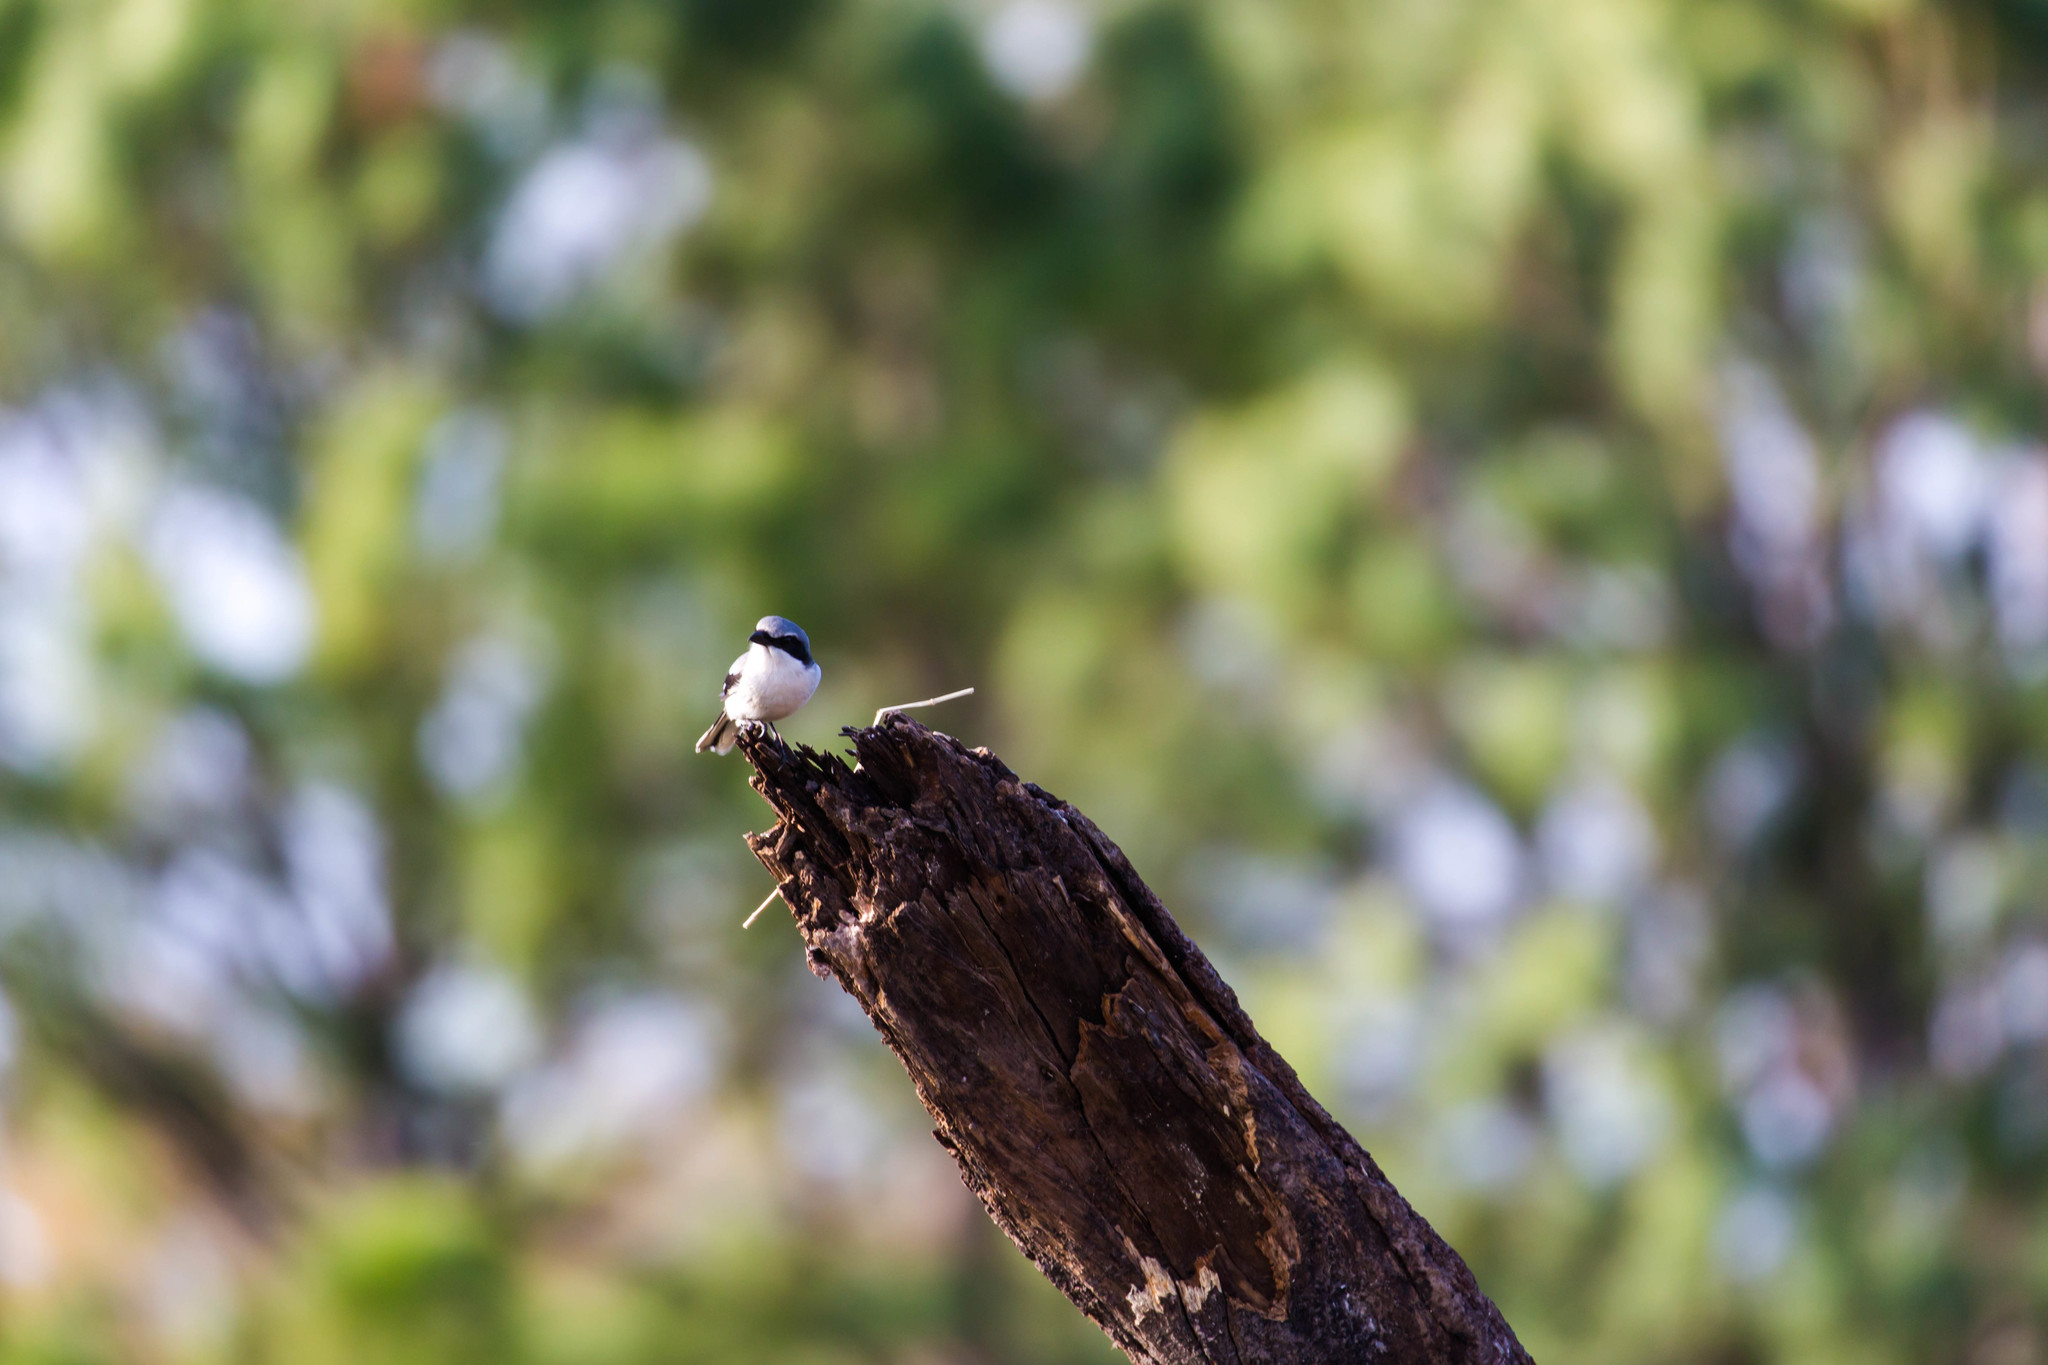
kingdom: Animalia
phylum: Chordata
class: Aves
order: Passeriformes
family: Laniidae
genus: Lanius
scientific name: Lanius ludovicianus
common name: Loggerhead shrike
